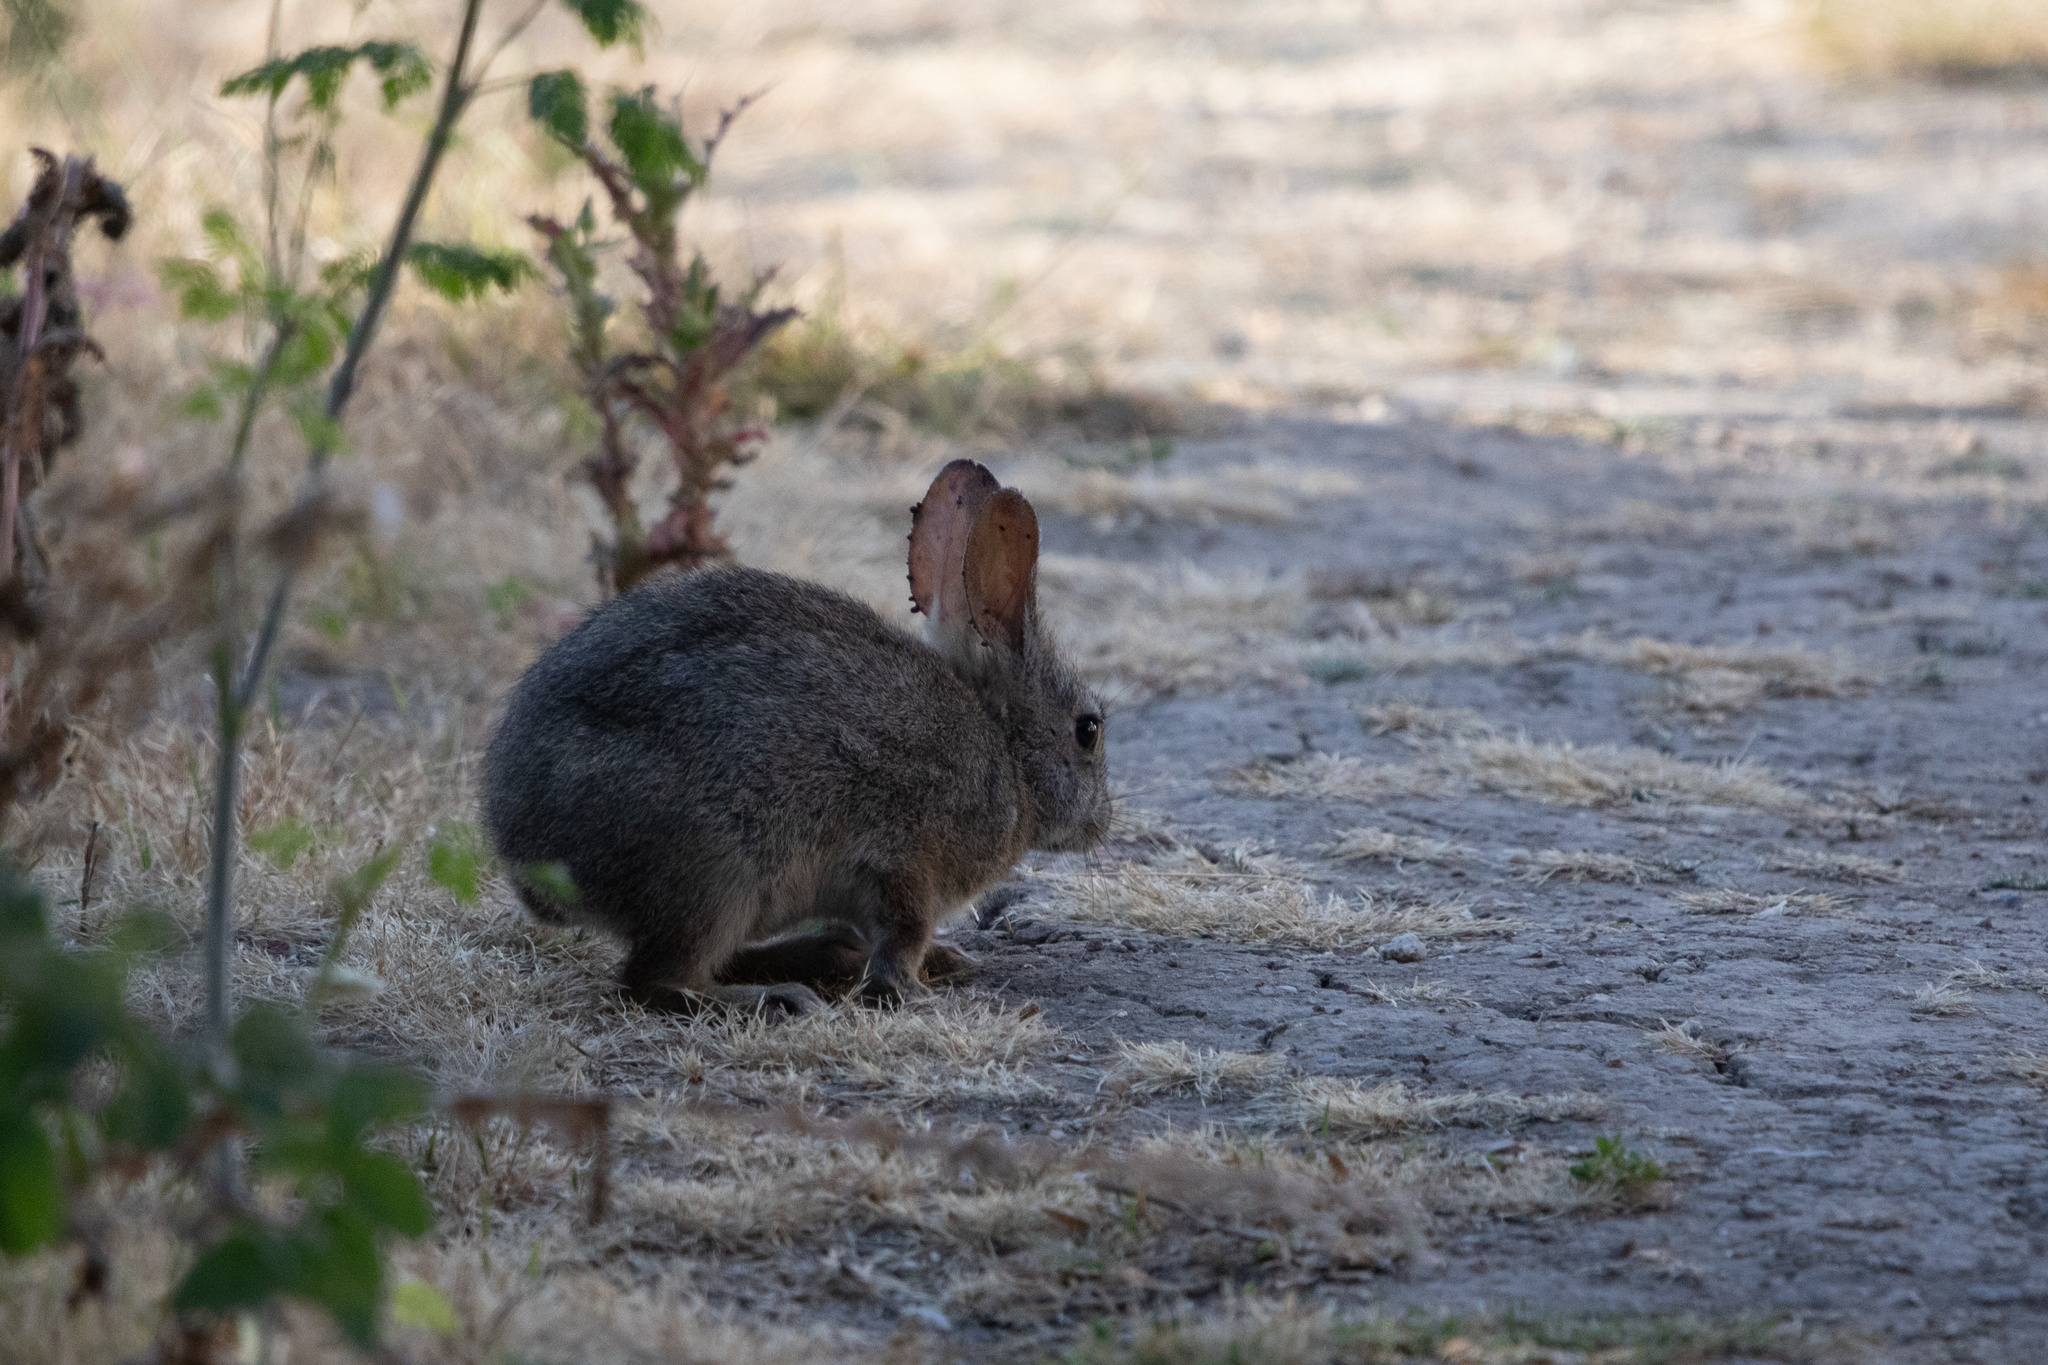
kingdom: Animalia
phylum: Chordata
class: Mammalia
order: Lagomorpha
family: Leporidae
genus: Sylvilagus
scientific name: Sylvilagus bachmani
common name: Brush rabbit
